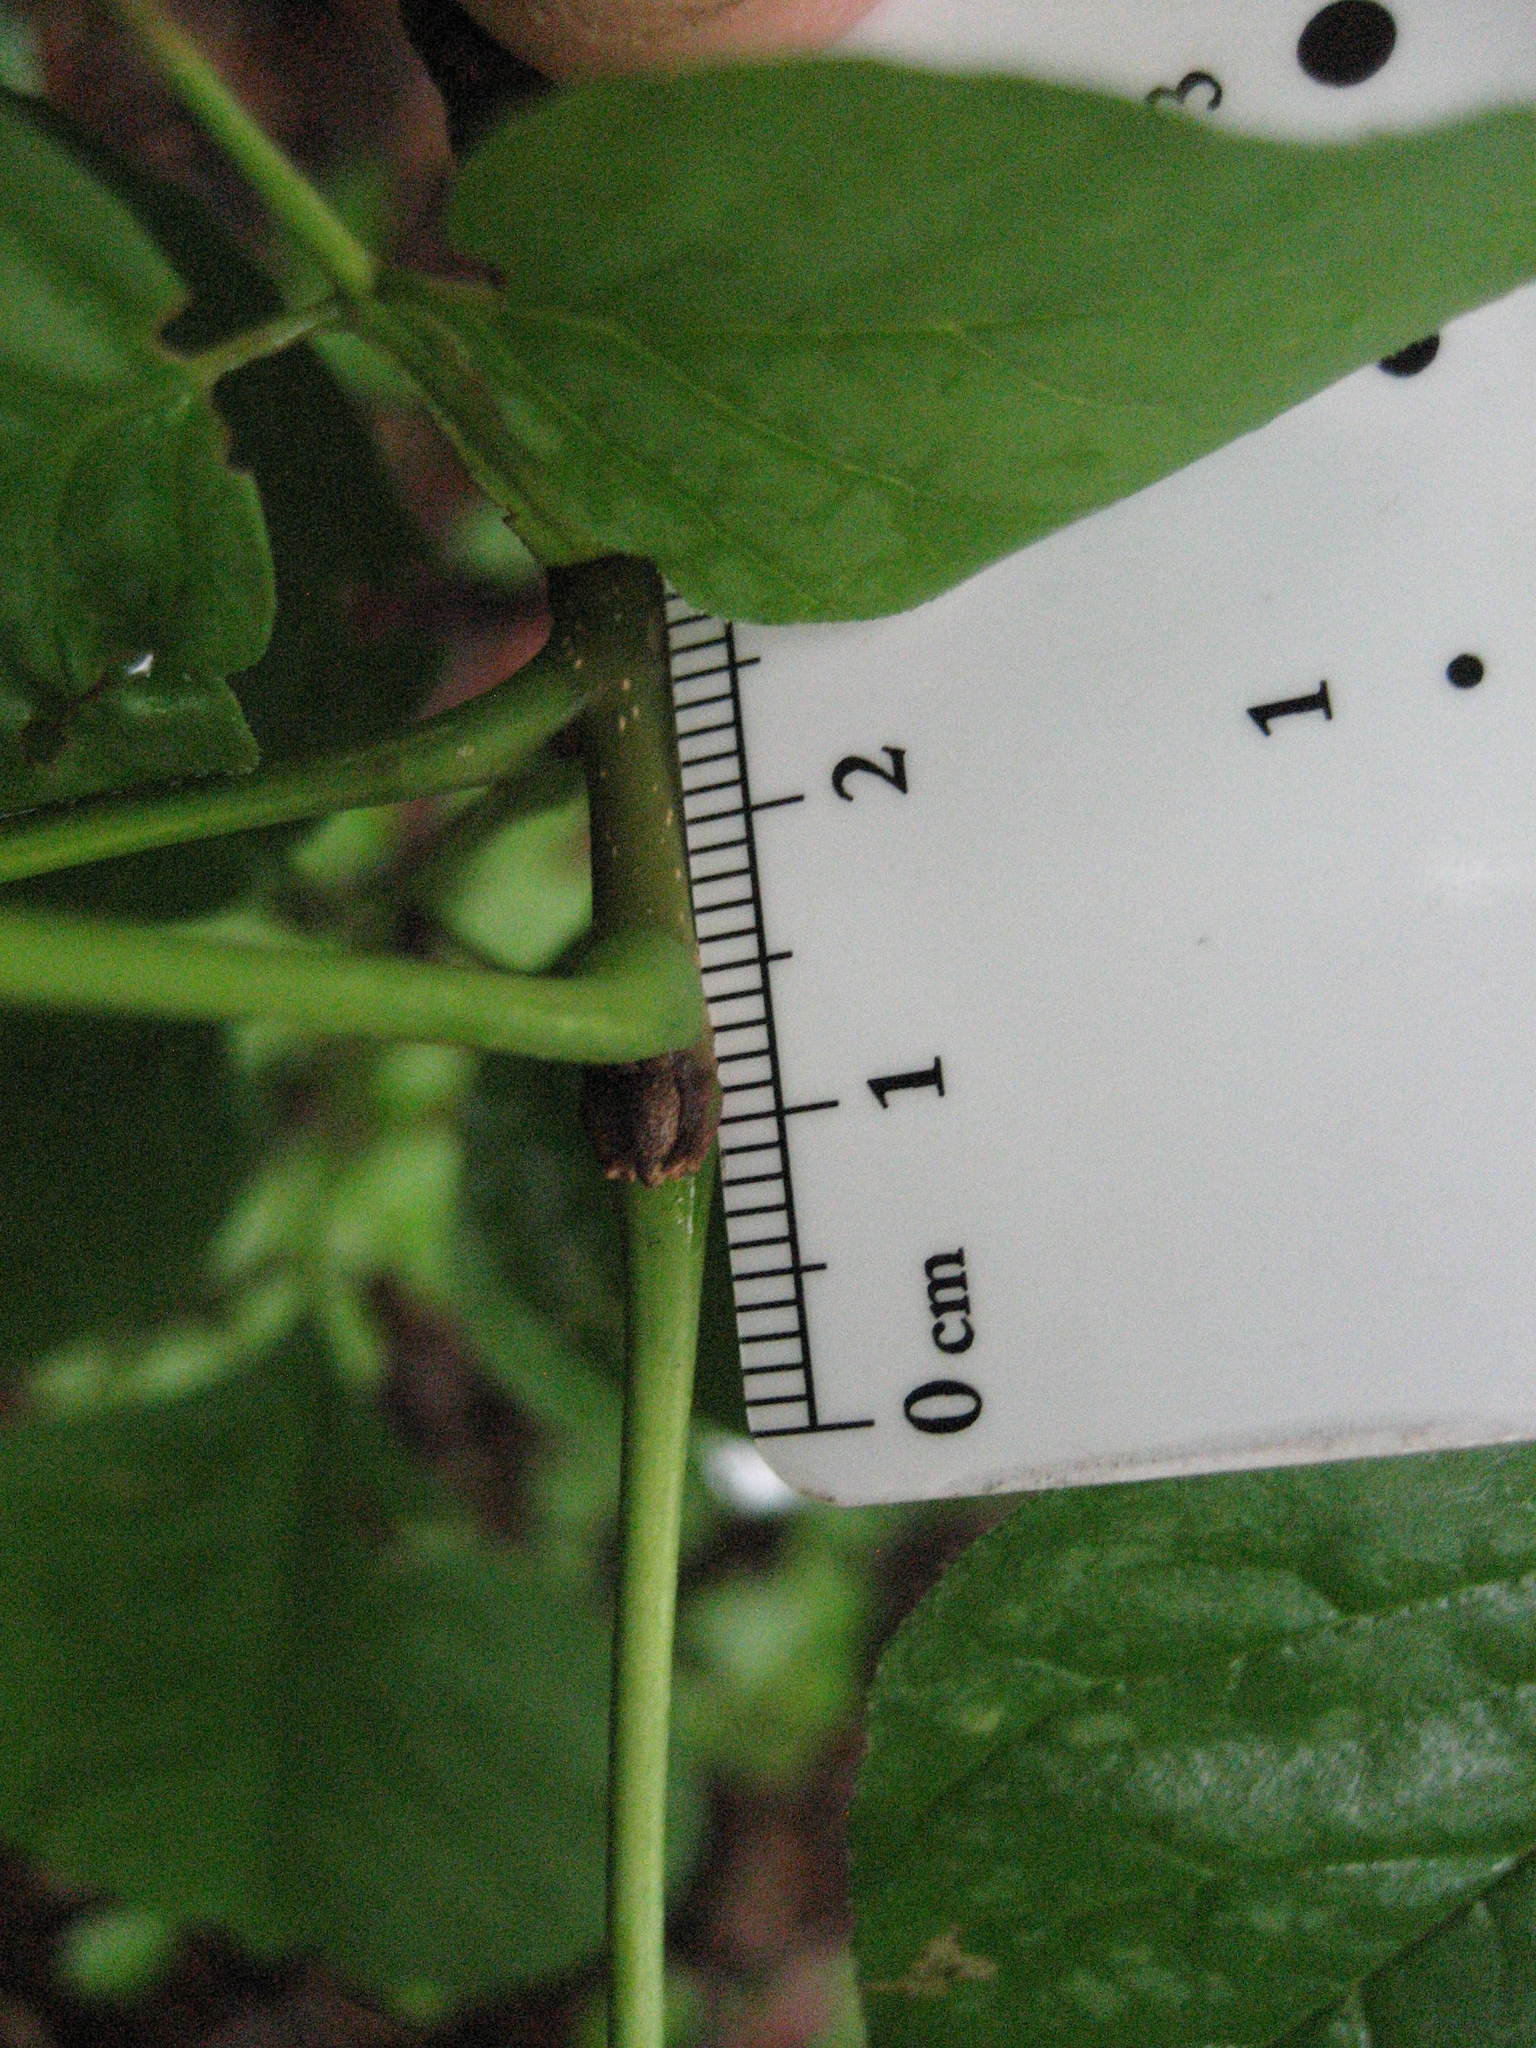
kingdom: Plantae
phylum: Tracheophyta
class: Magnoliopsida
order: Lamiales
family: Oleaceae
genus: Fraxinus
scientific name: Fraxinus americana
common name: White ash
